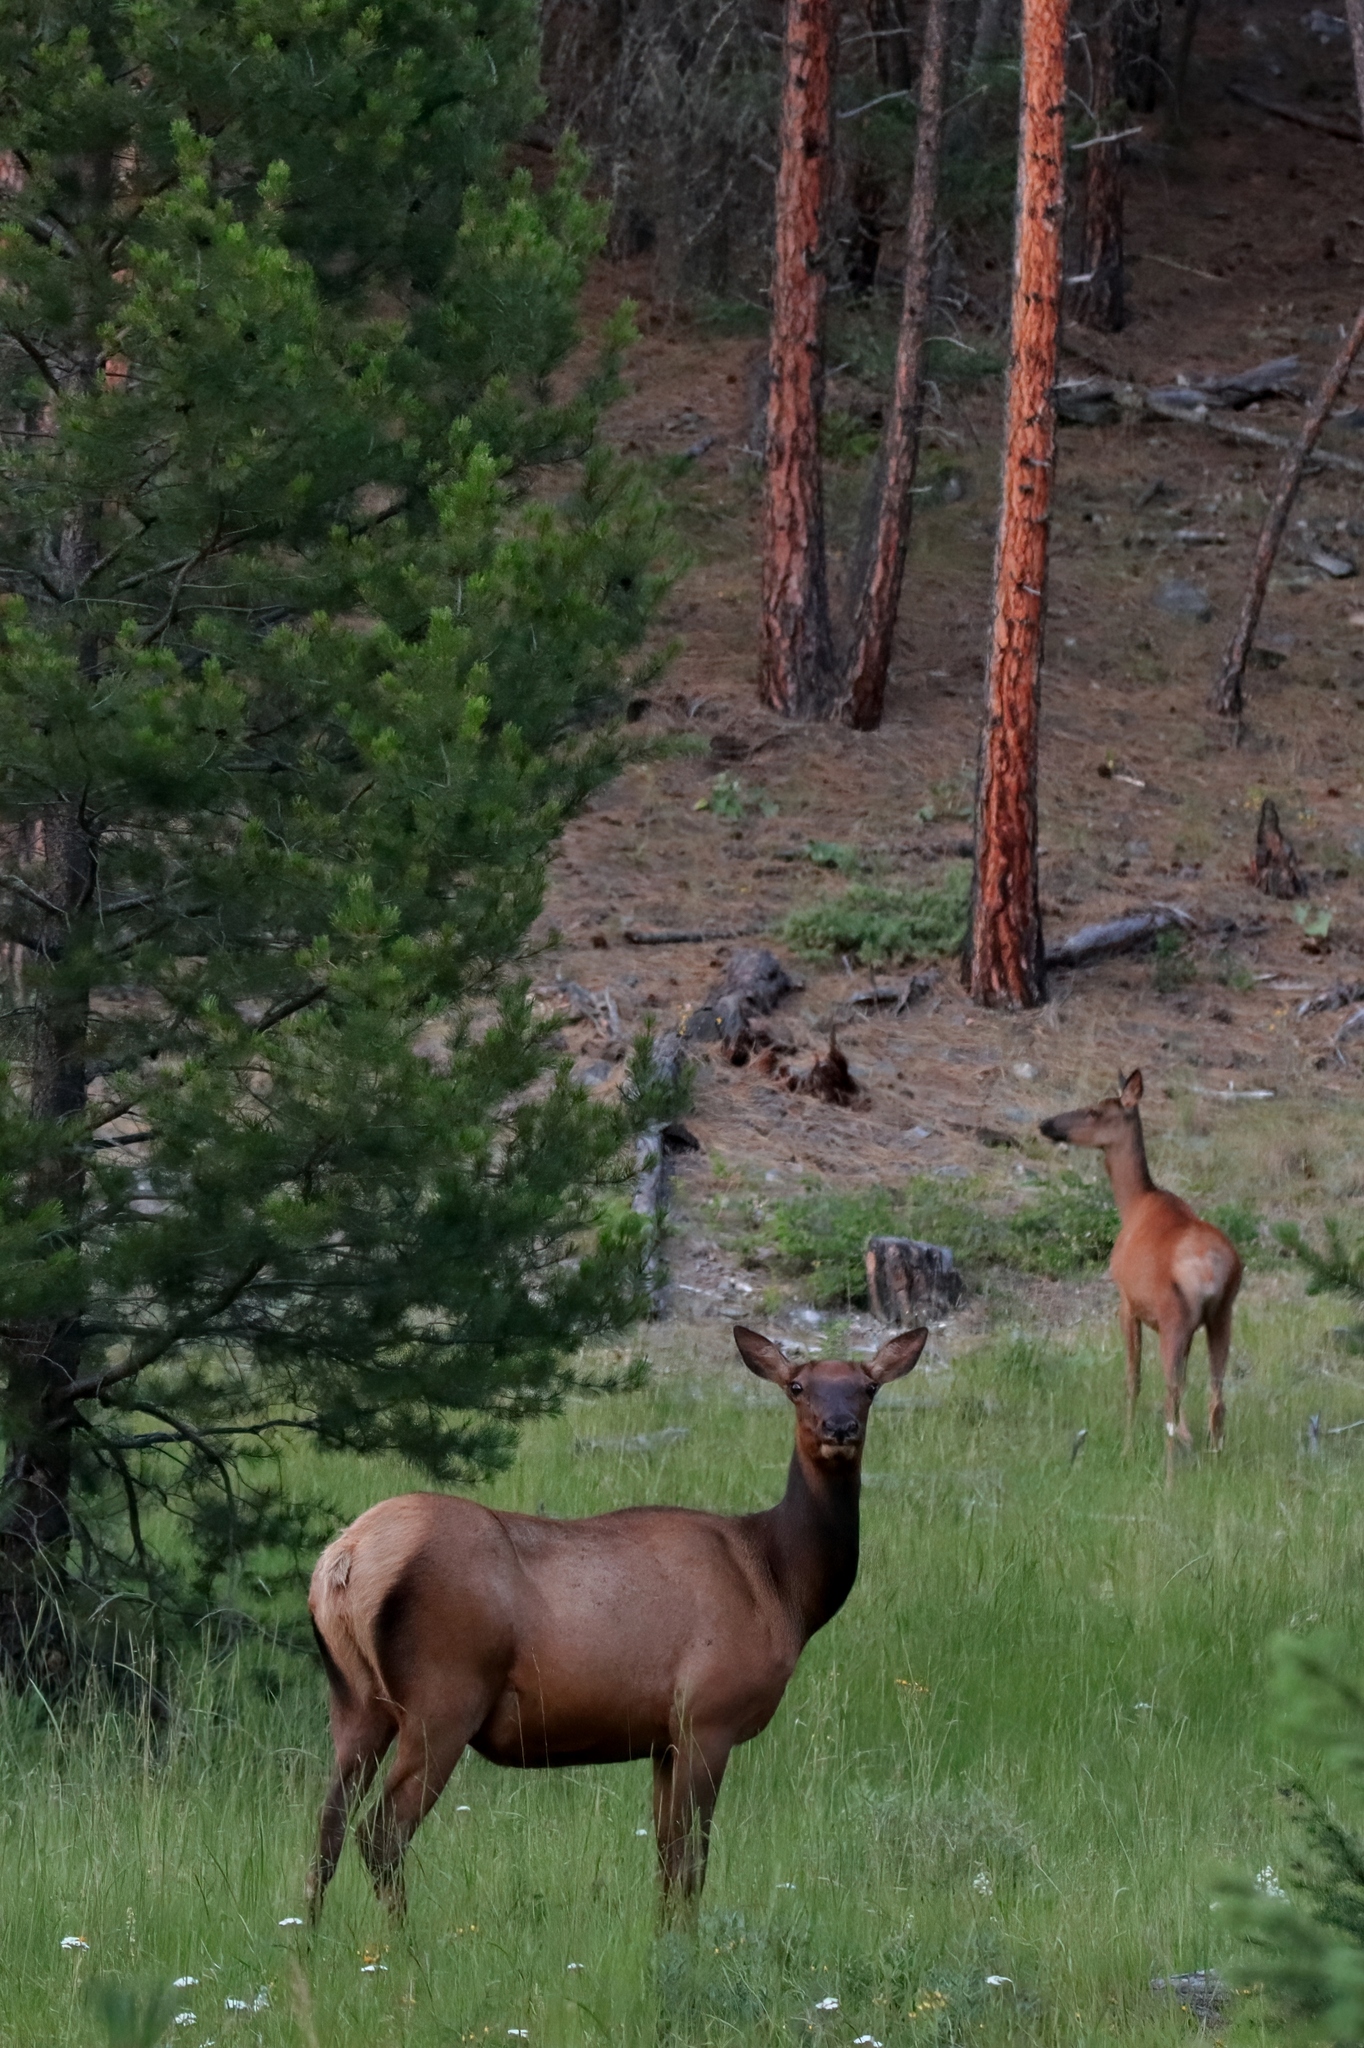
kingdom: Animalia
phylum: Chordata
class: Mammalia
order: Artiodactyla
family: Cervidae
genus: Cervus
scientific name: Cervus elaphus
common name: Red deer
